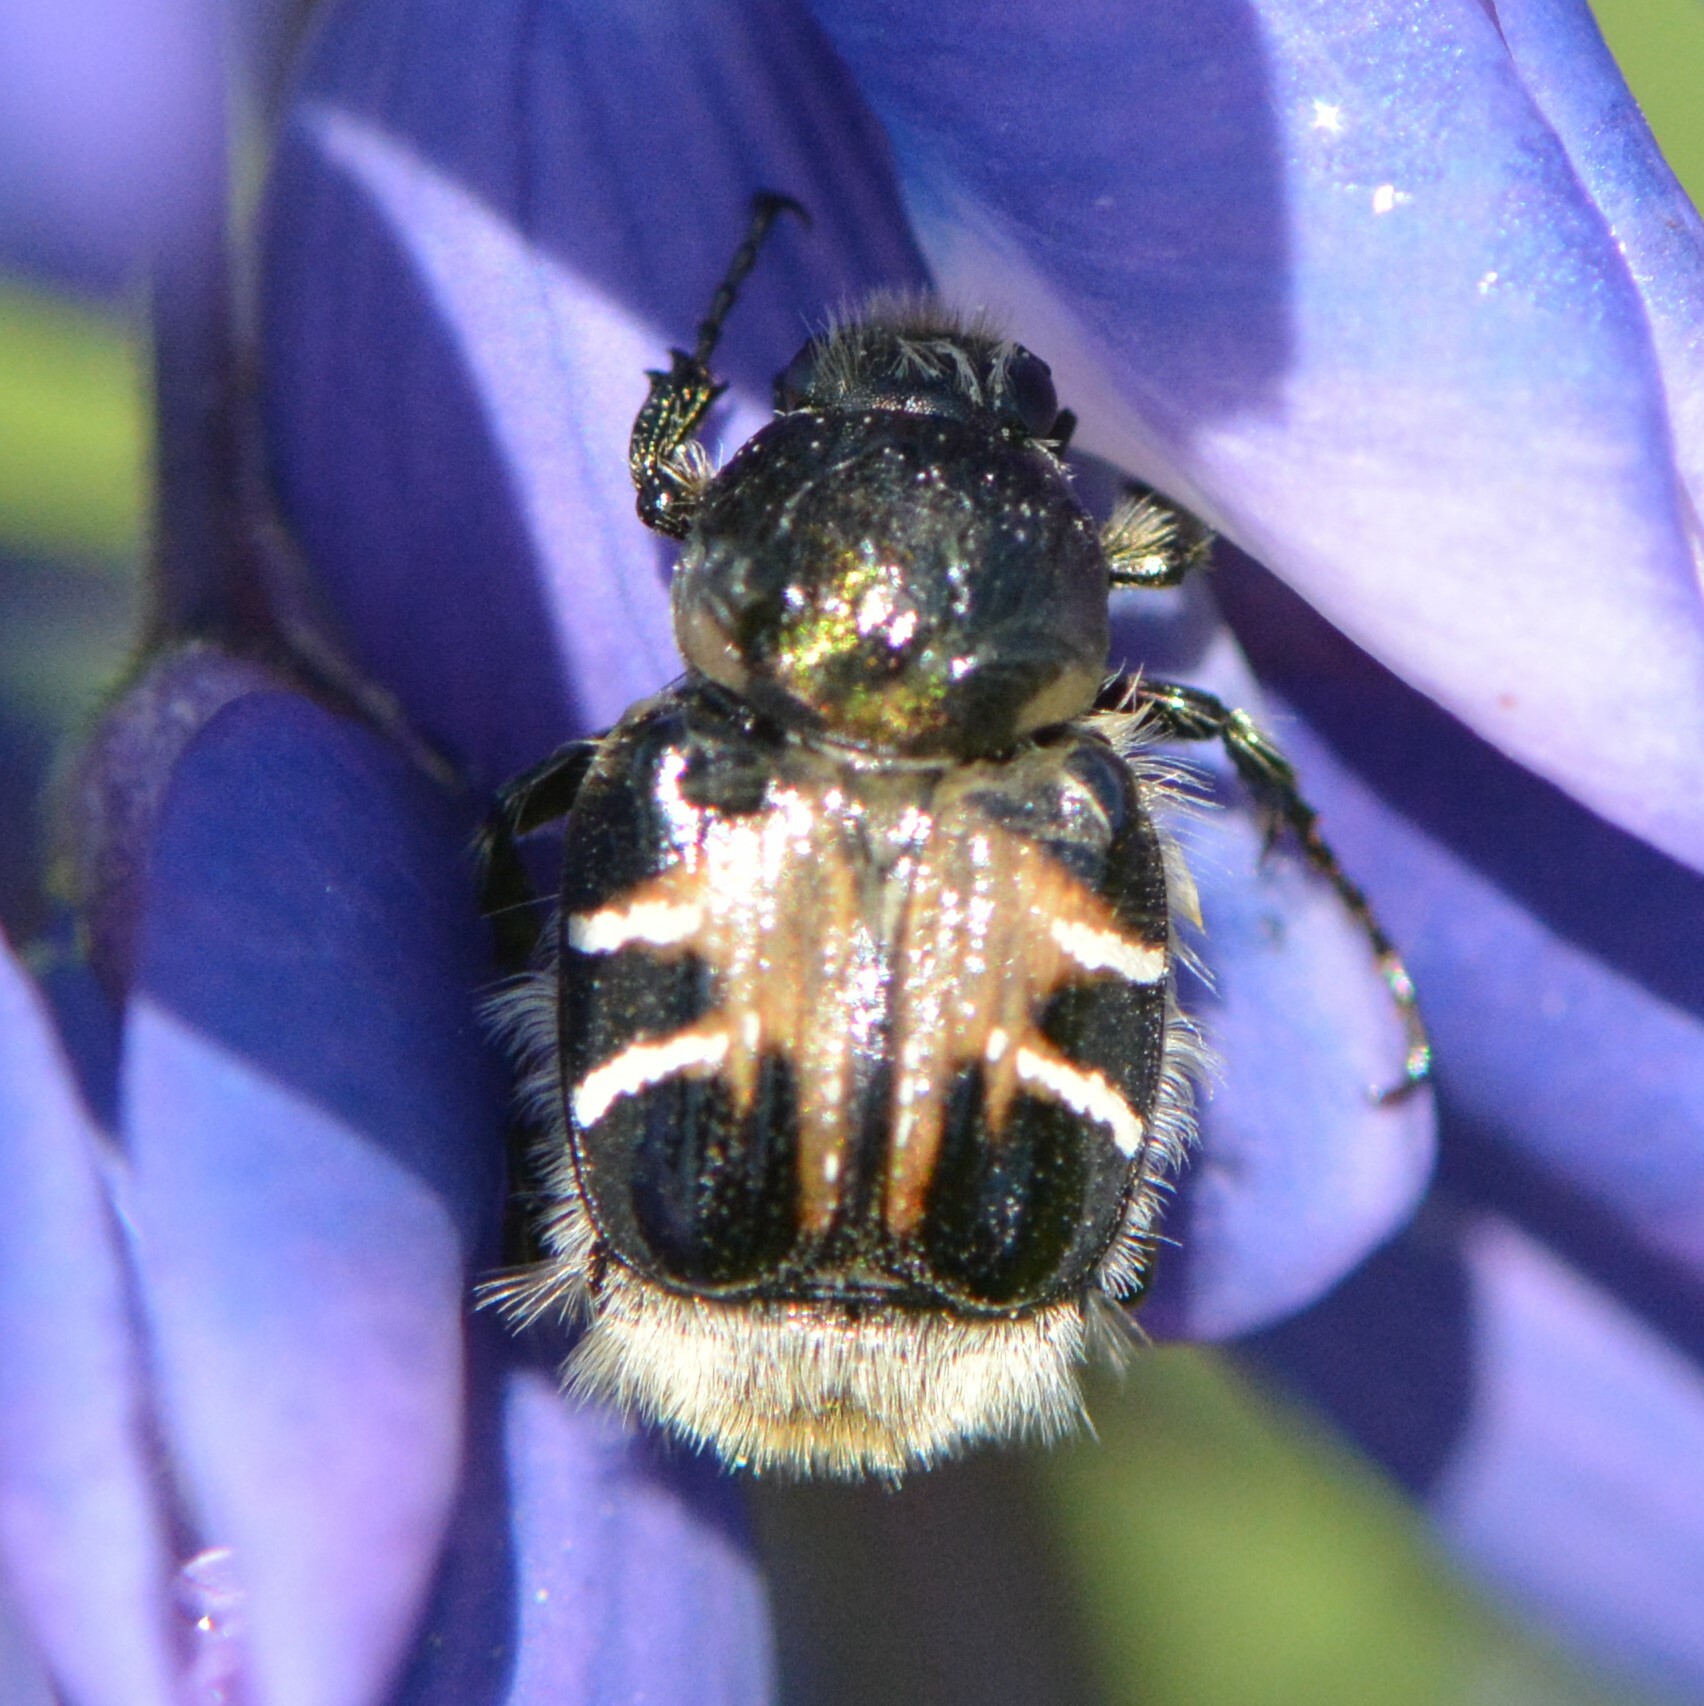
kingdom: Animalia
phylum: Arthropoda
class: Insecta
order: Coleoptera
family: Scarabaeidae
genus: Trichiotinus
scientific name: Trichiotinus assimilis
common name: Bee-mimic beetle
